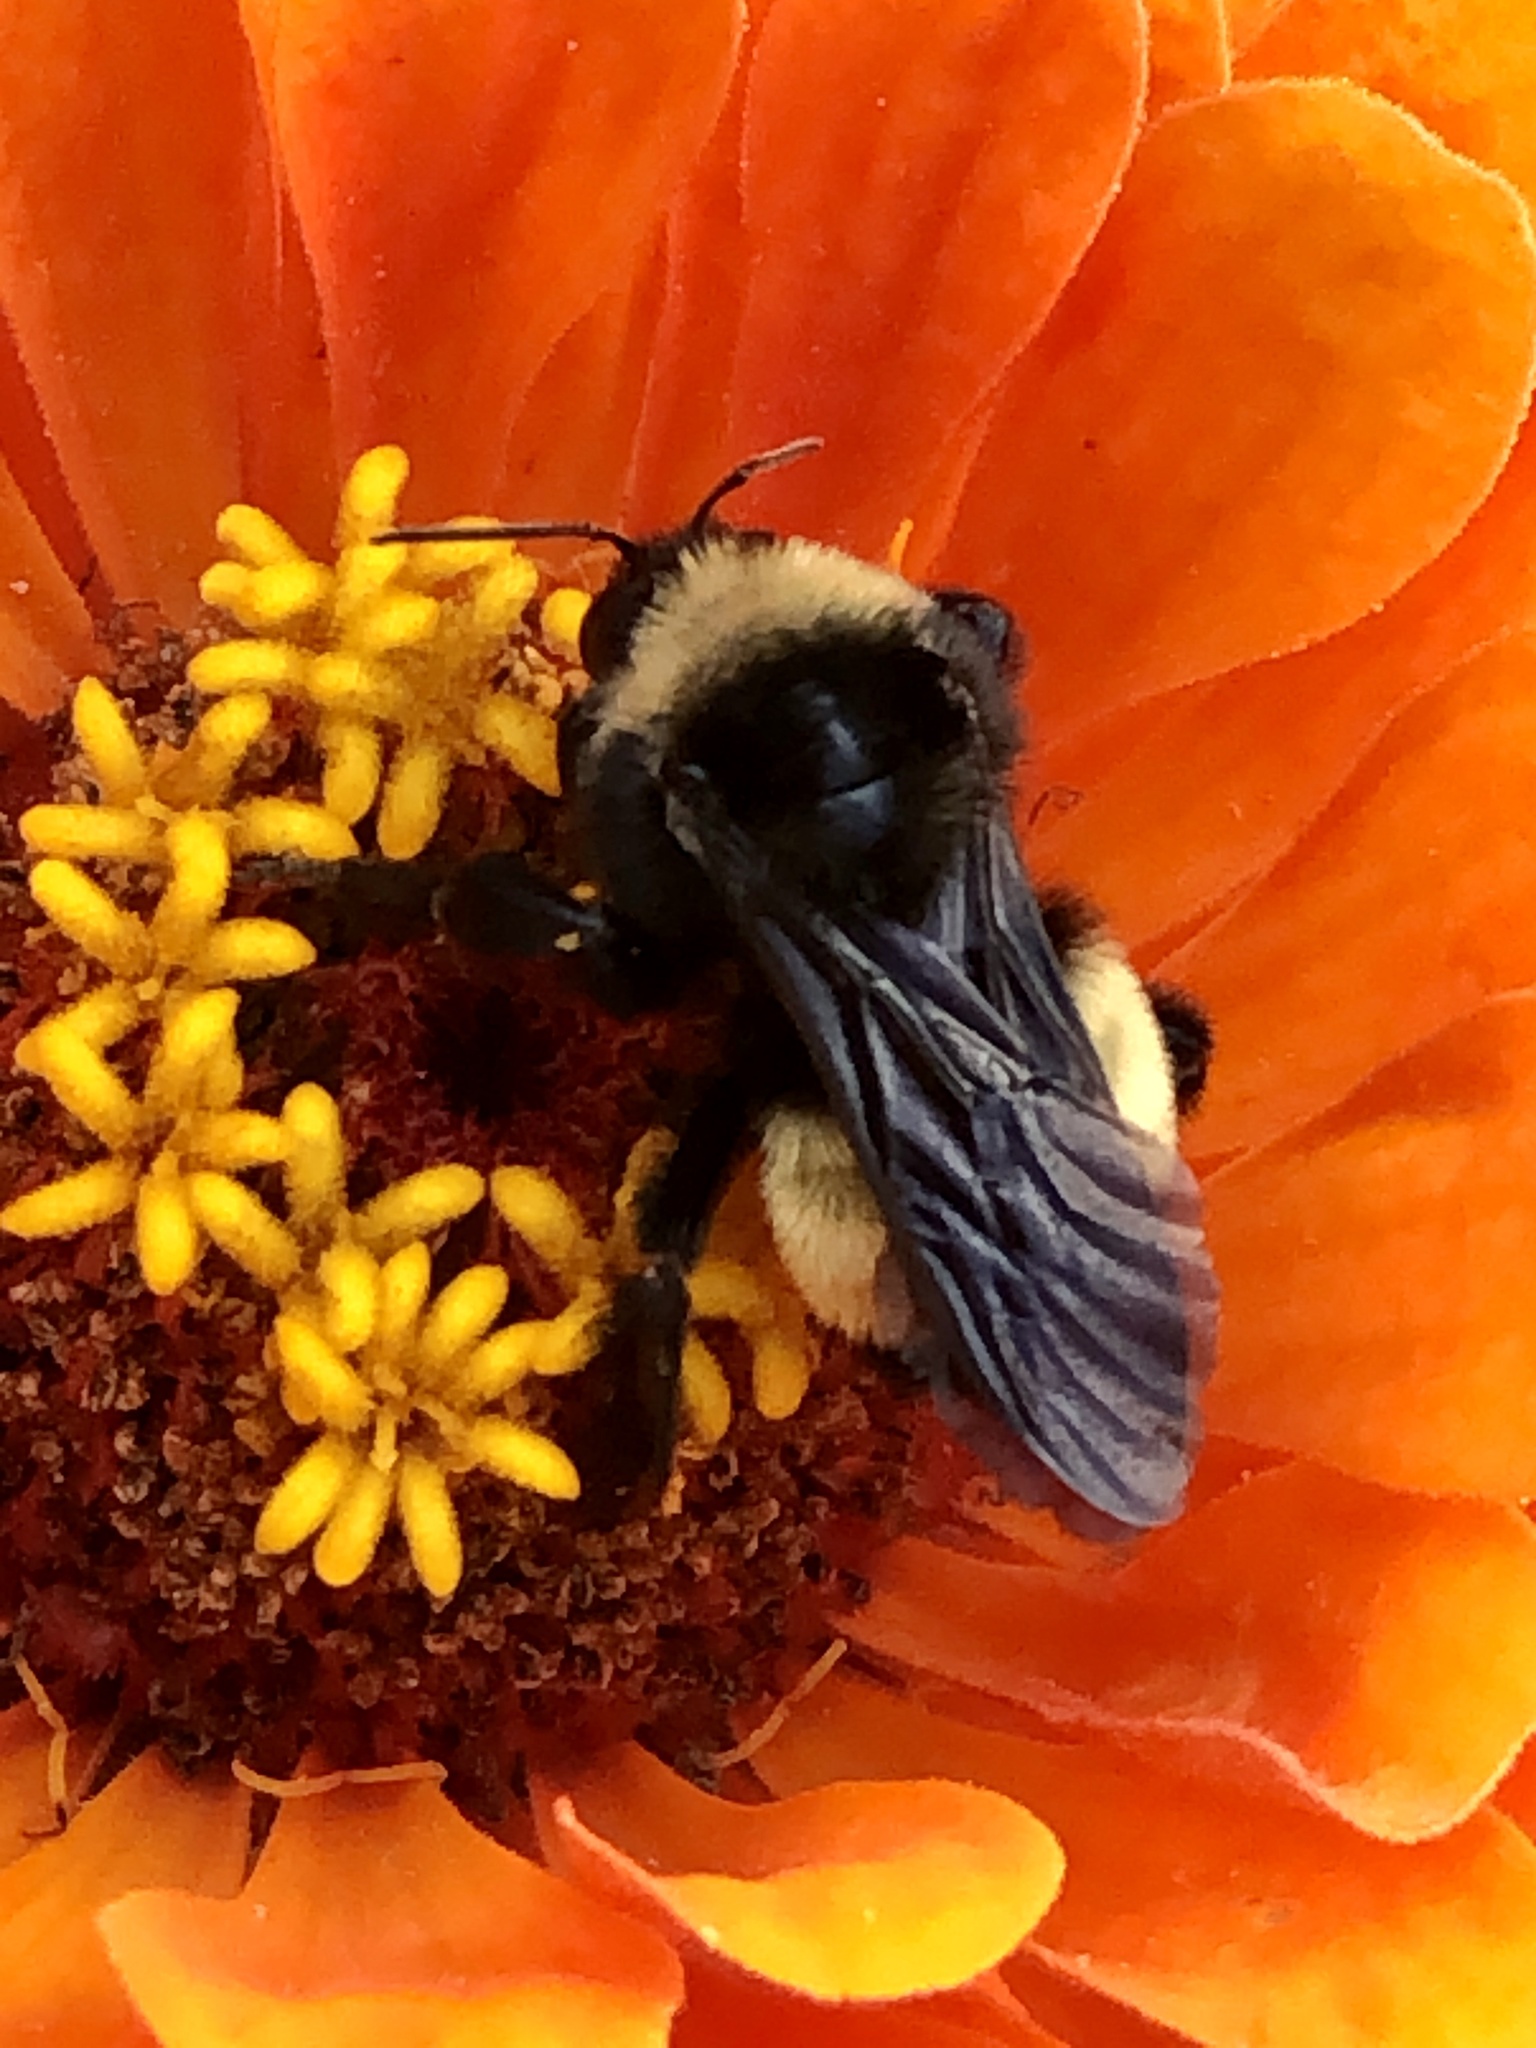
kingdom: Animalia
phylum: Arthropoda
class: Insecta
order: Hymenoptera
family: Apidae
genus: Bombus
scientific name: Bombus pensylvanicus
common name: Bumble bee
